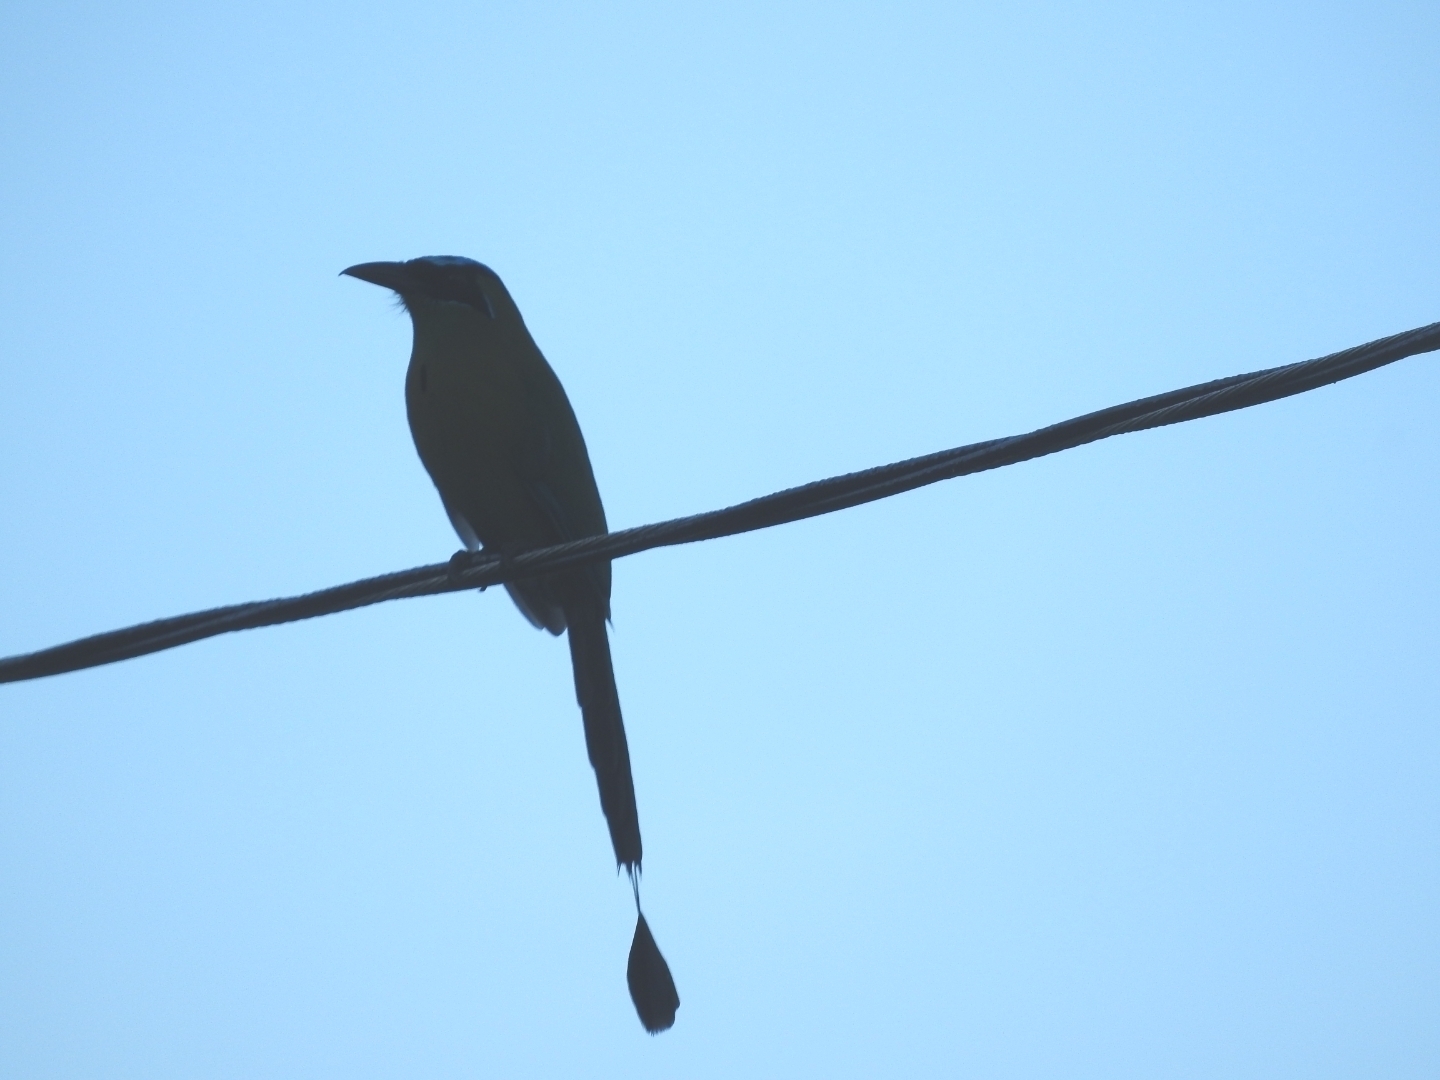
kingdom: Animalia
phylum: Chordata
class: Aves
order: Coraciiformes
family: Momotidae
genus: Momotus
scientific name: Momotus lessonii
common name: Lesson's motmot
